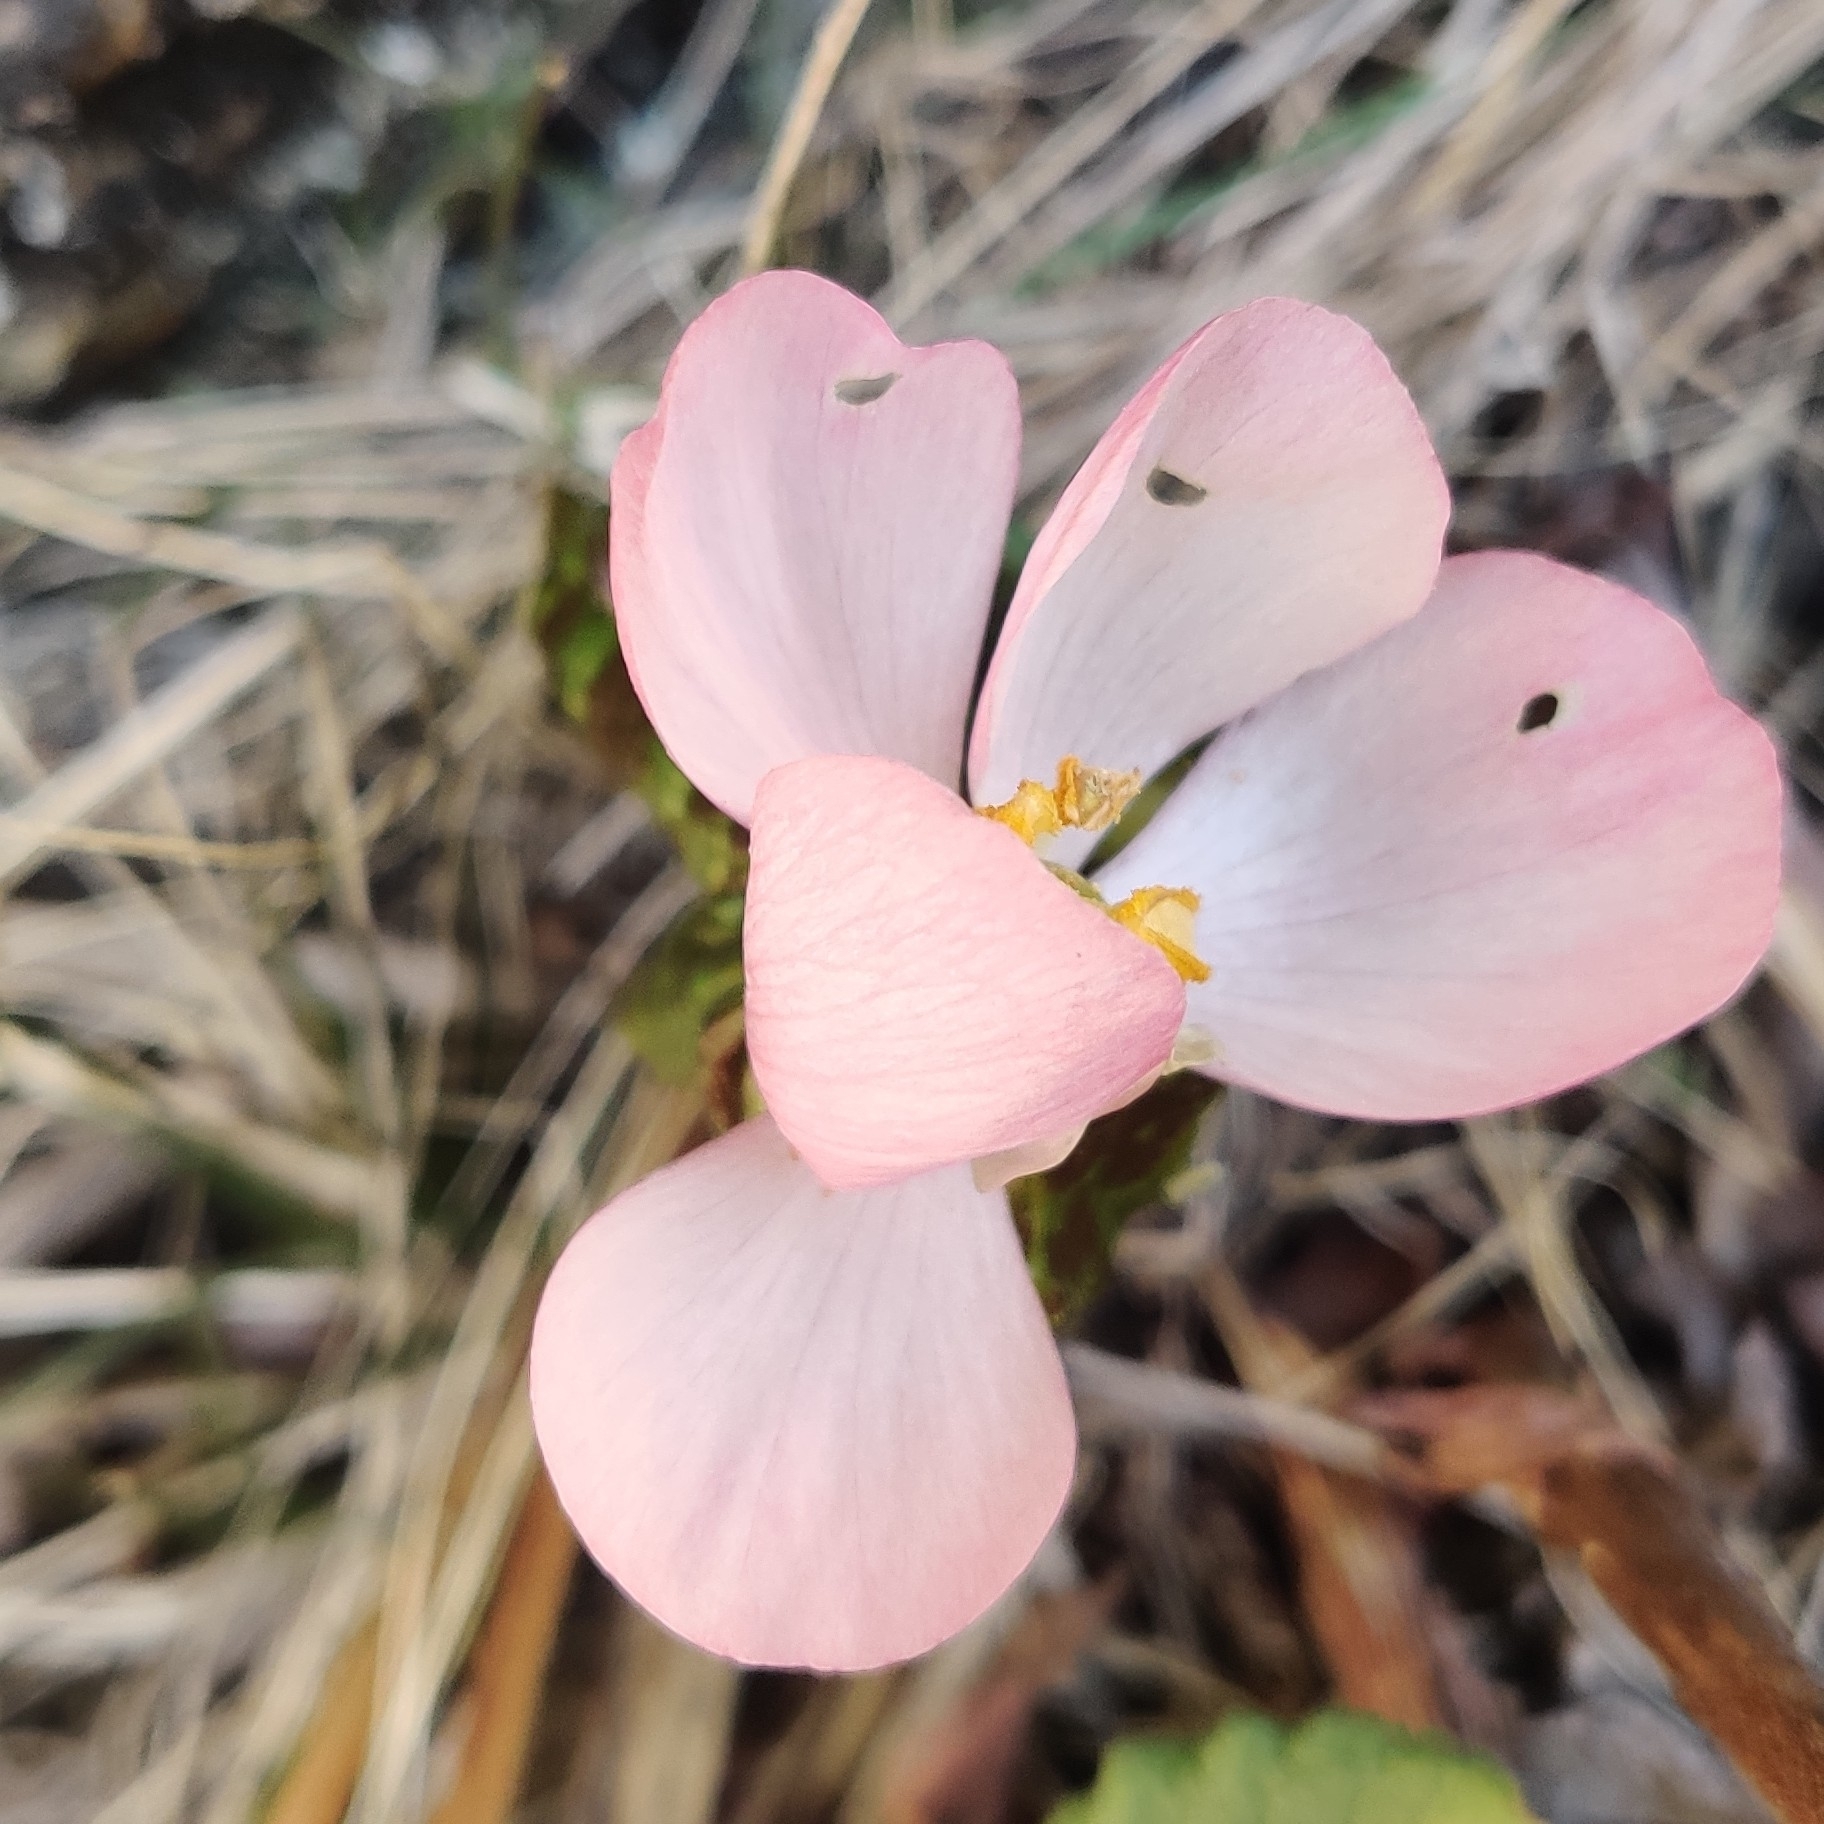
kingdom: Plantae
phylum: Tracheophyta
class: Magnoliopsida
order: Ranunculales
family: Berberidaceae
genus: Sinopodophyllum
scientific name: Sinopodophyllum hexandrum
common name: Himalayan may-apple
